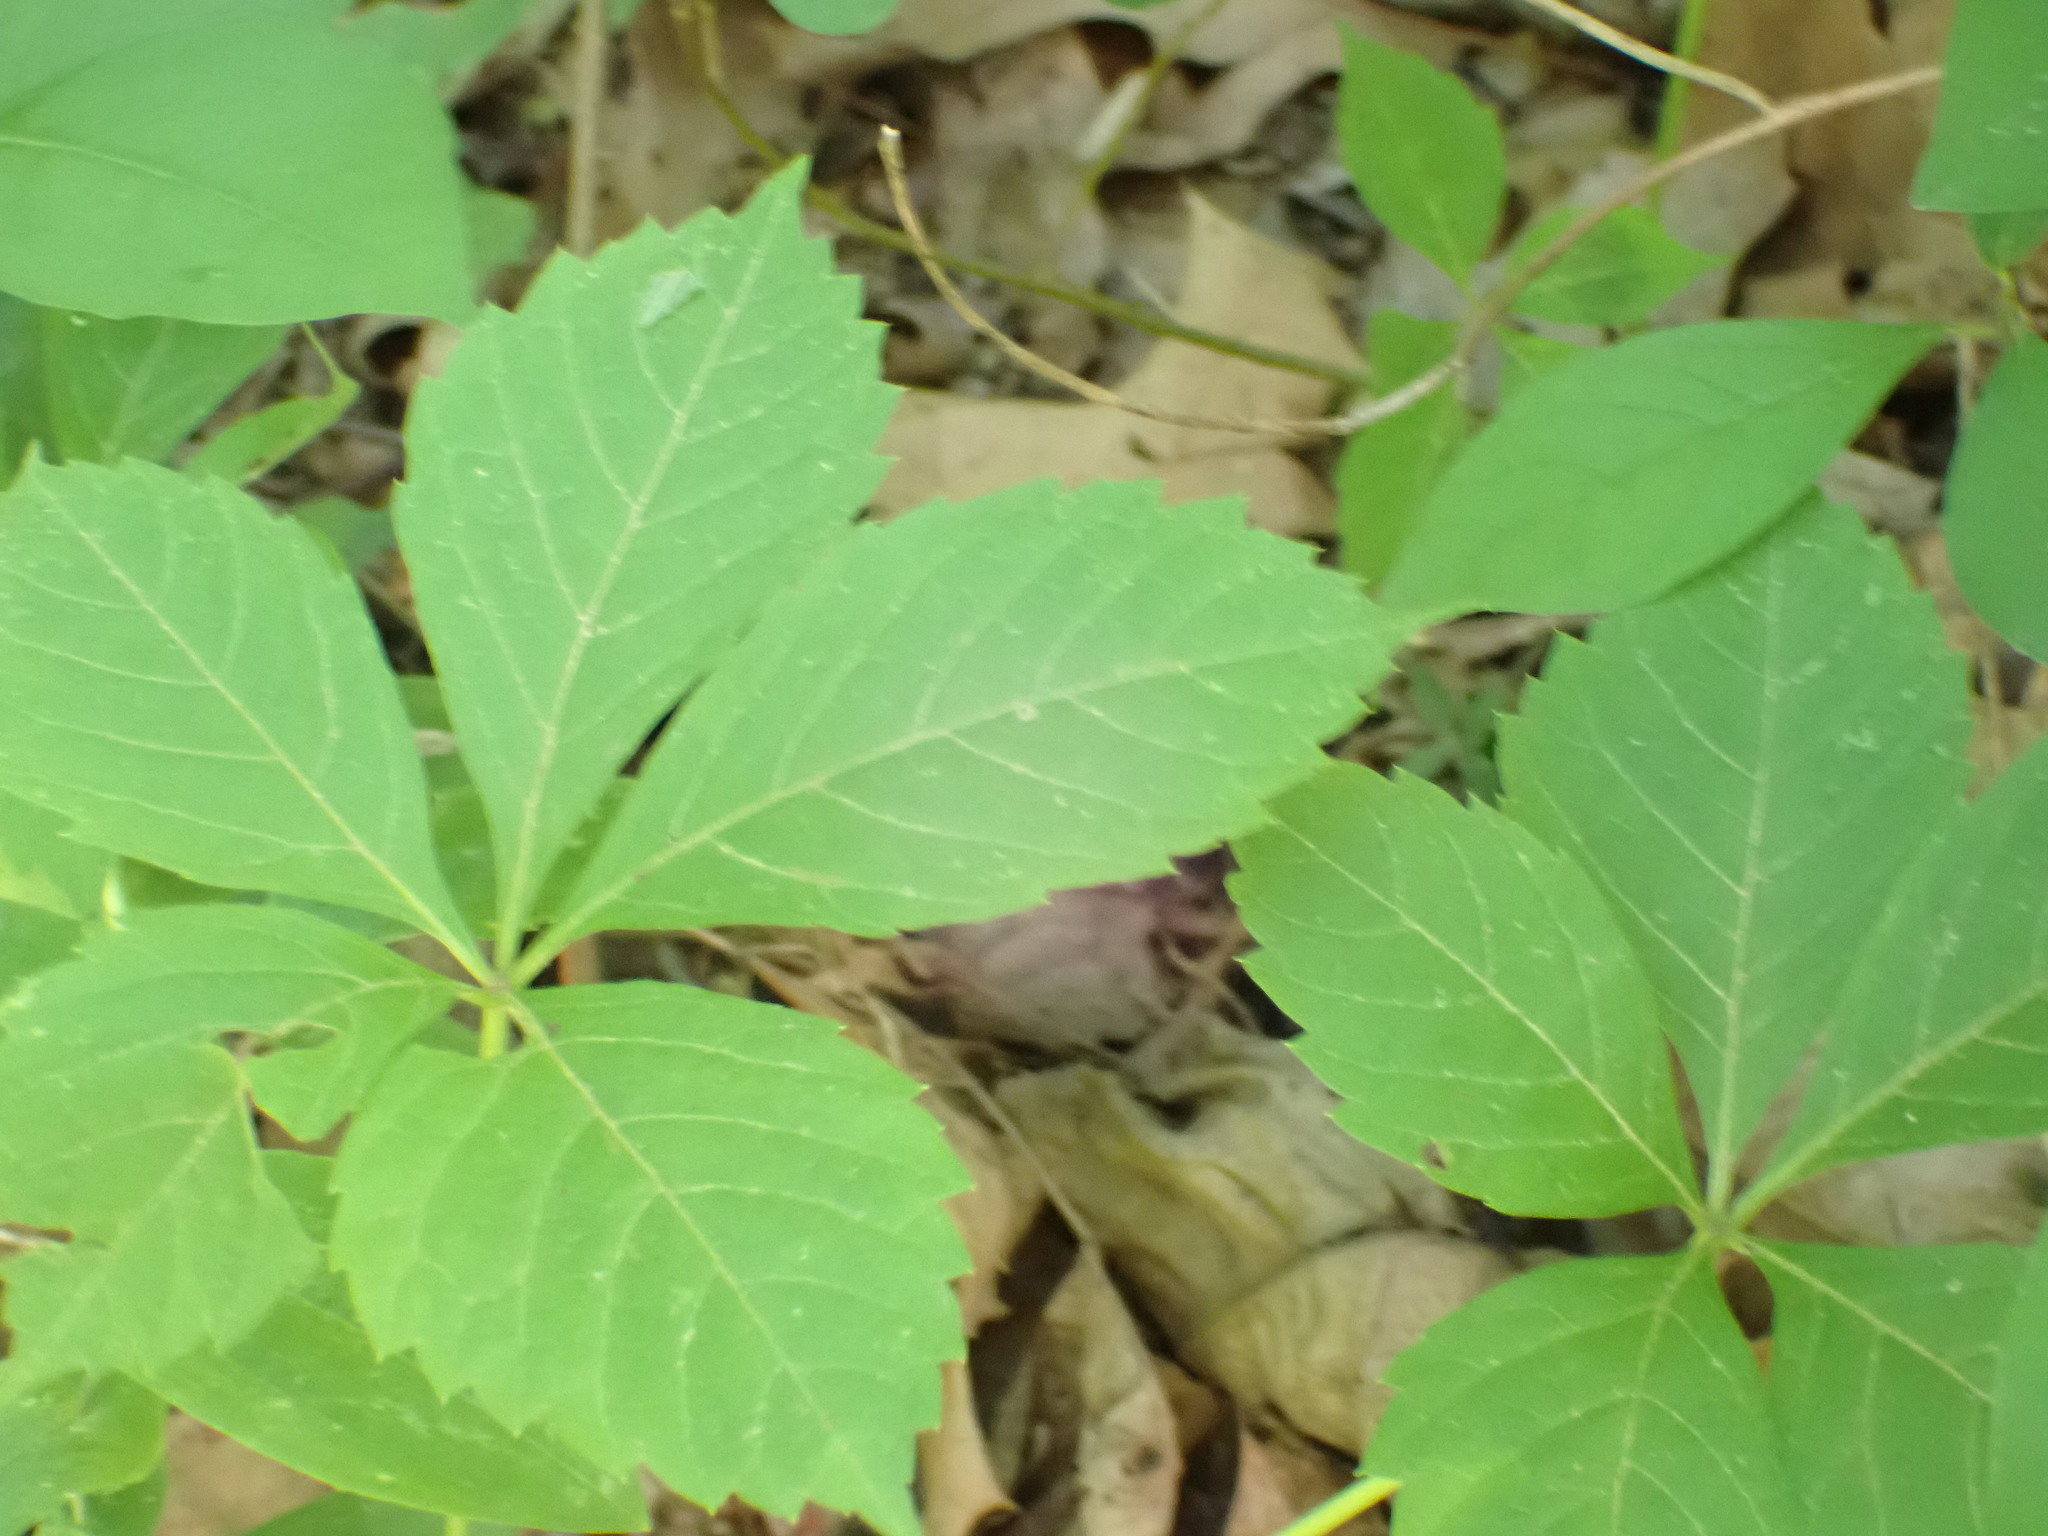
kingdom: Plantae
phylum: Tracheophyta
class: Magnoliopsida
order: Vitales
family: Vitaceae
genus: Parthenocissus
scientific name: Parthenocissus quinquefolia
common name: Virginia-creeper
